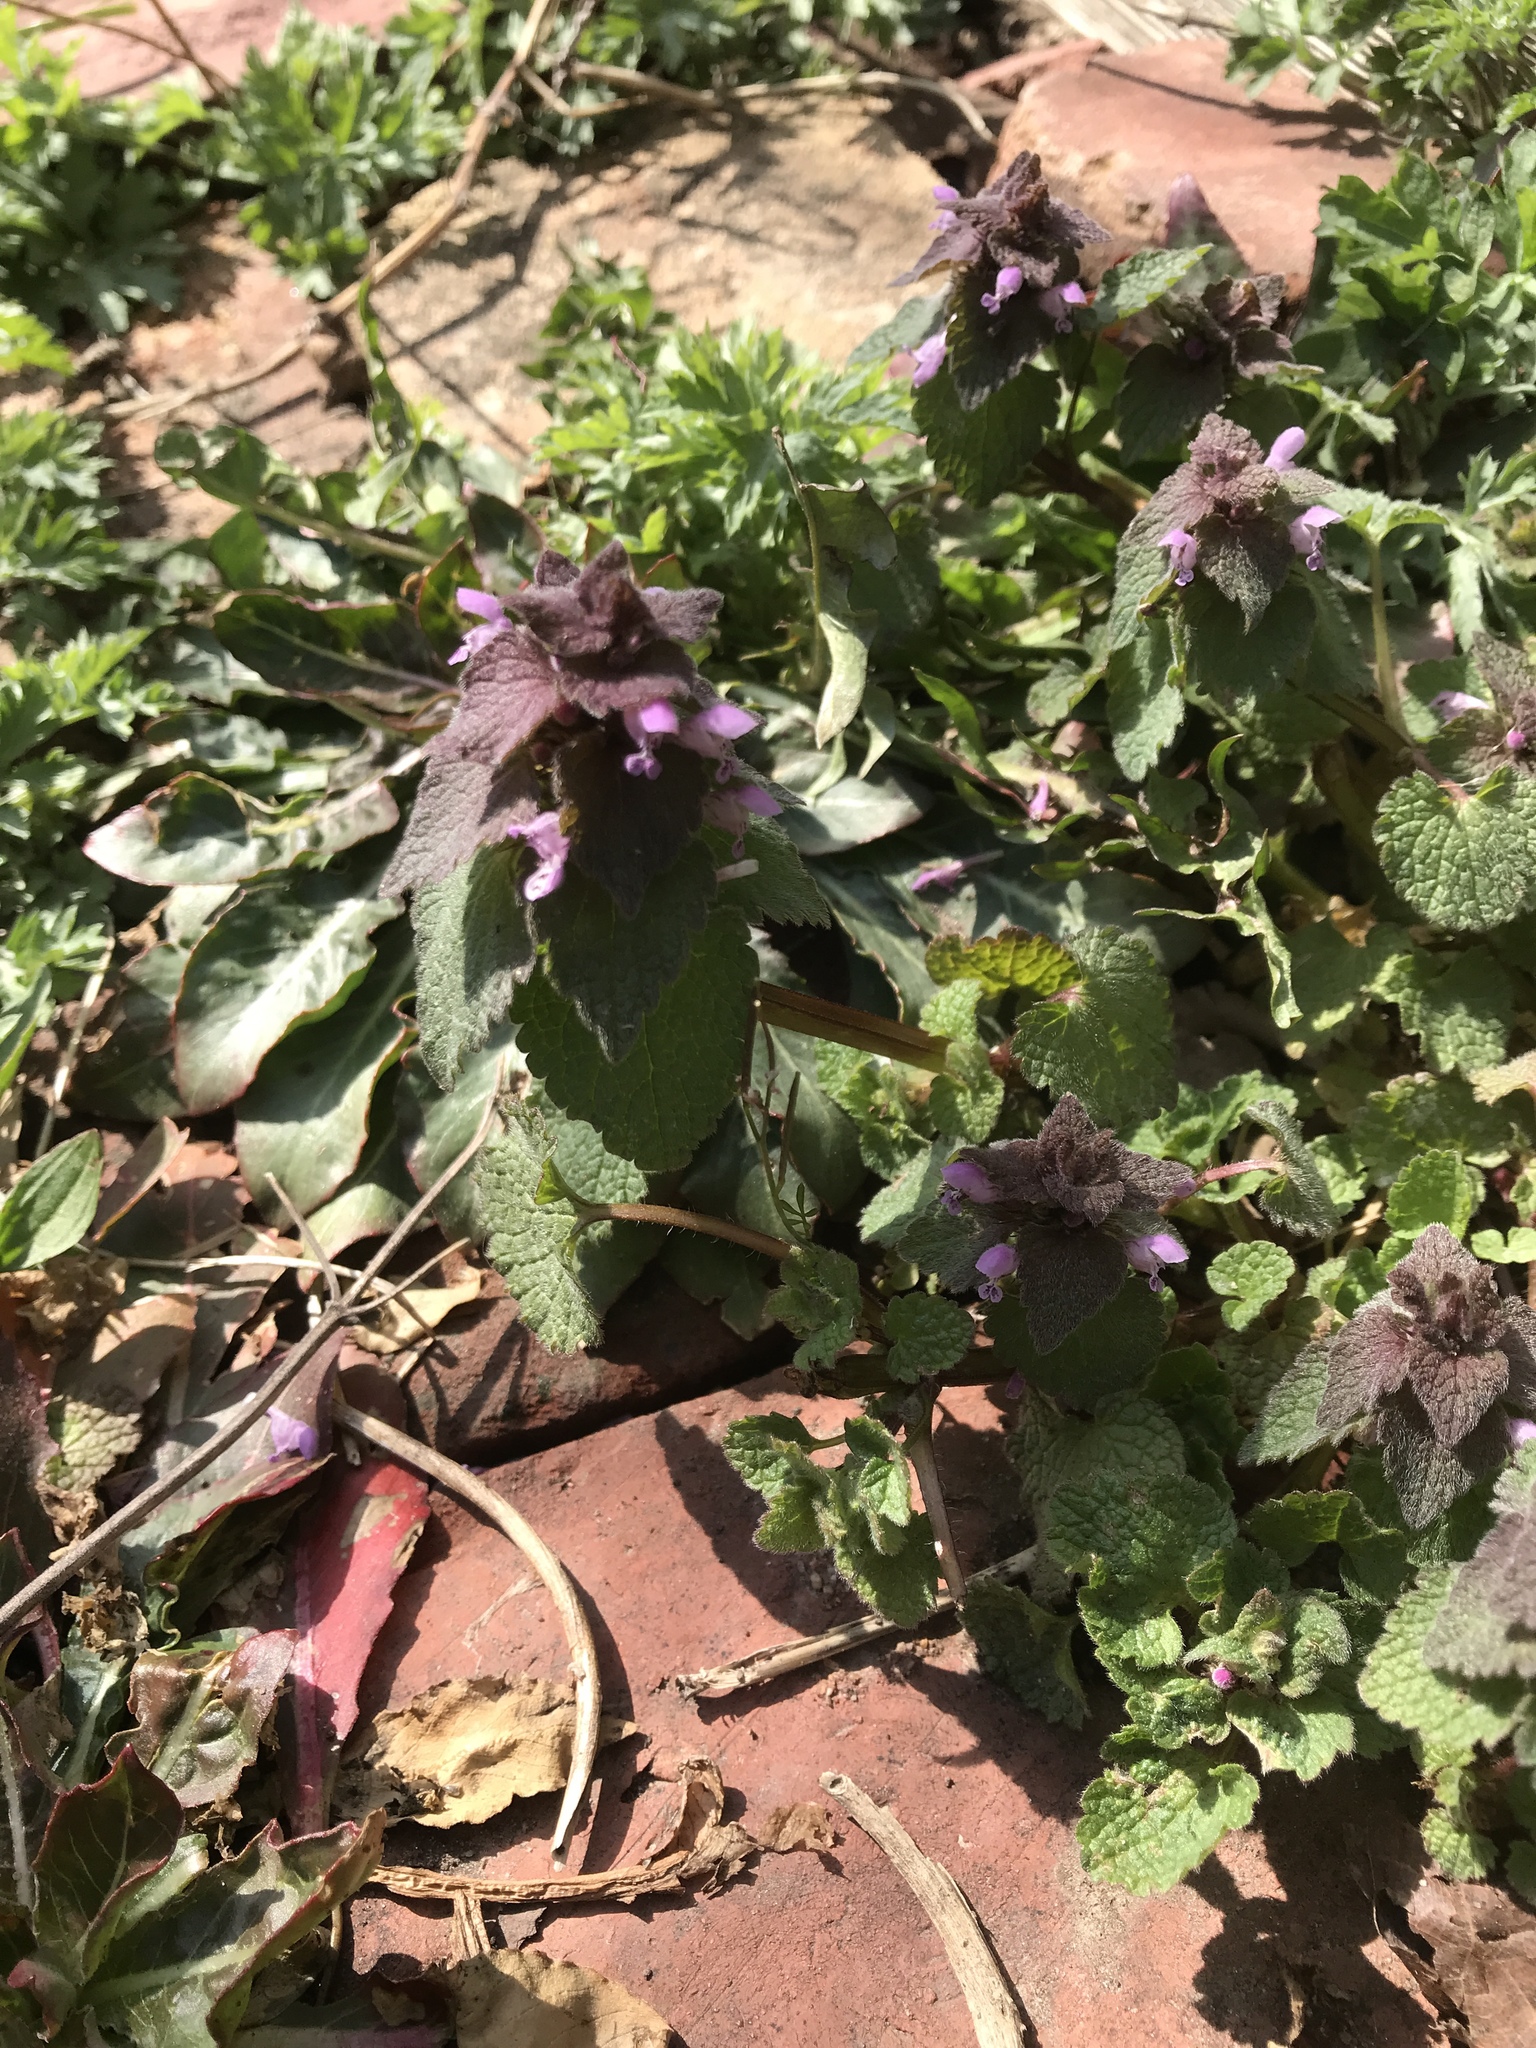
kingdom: Plantae
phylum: Tracheophyta
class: Magnoliopsida
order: Lamiales
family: Lamiaceae
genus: Lamium
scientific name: Lamium purpureum
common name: Red dead-nettle
